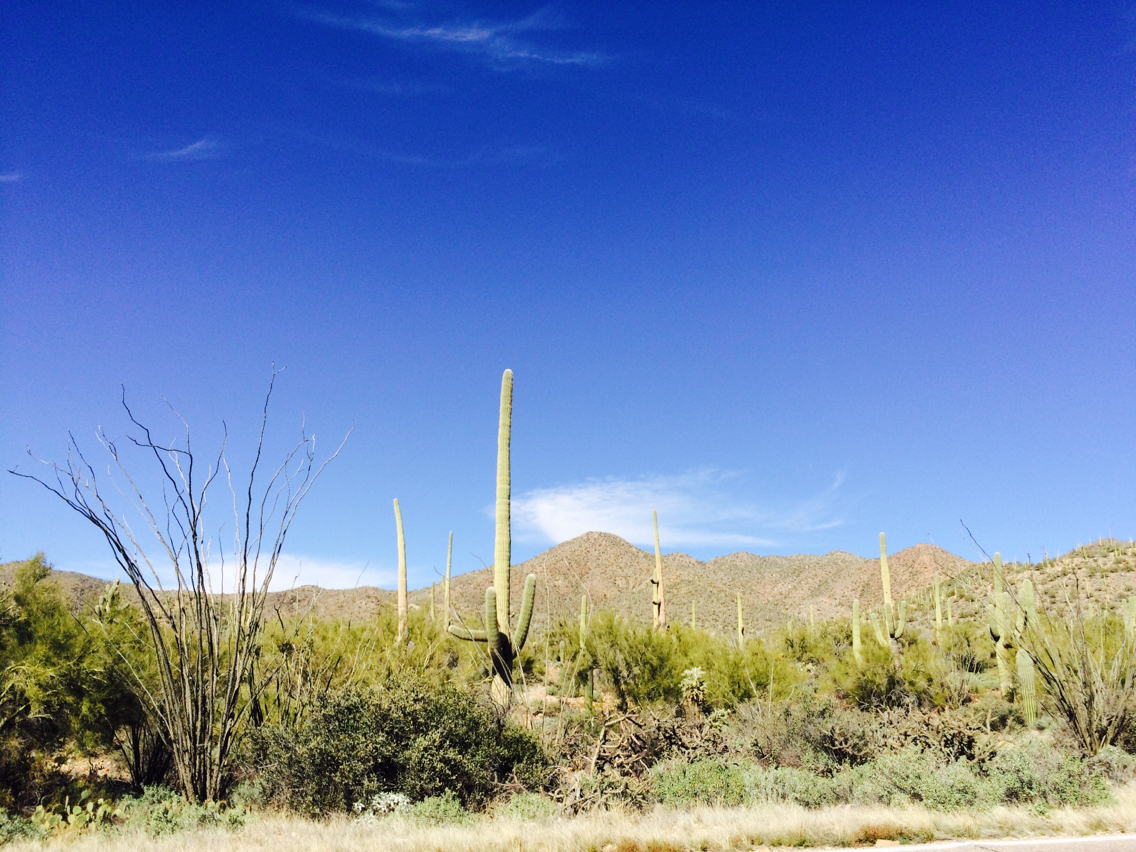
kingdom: Plantae
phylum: Tracheophyta
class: Magnoliopsida
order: Caryophyllales
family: Cactaceae
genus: Carnegiea
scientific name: Carnegiea gigantea
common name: Saguaro
